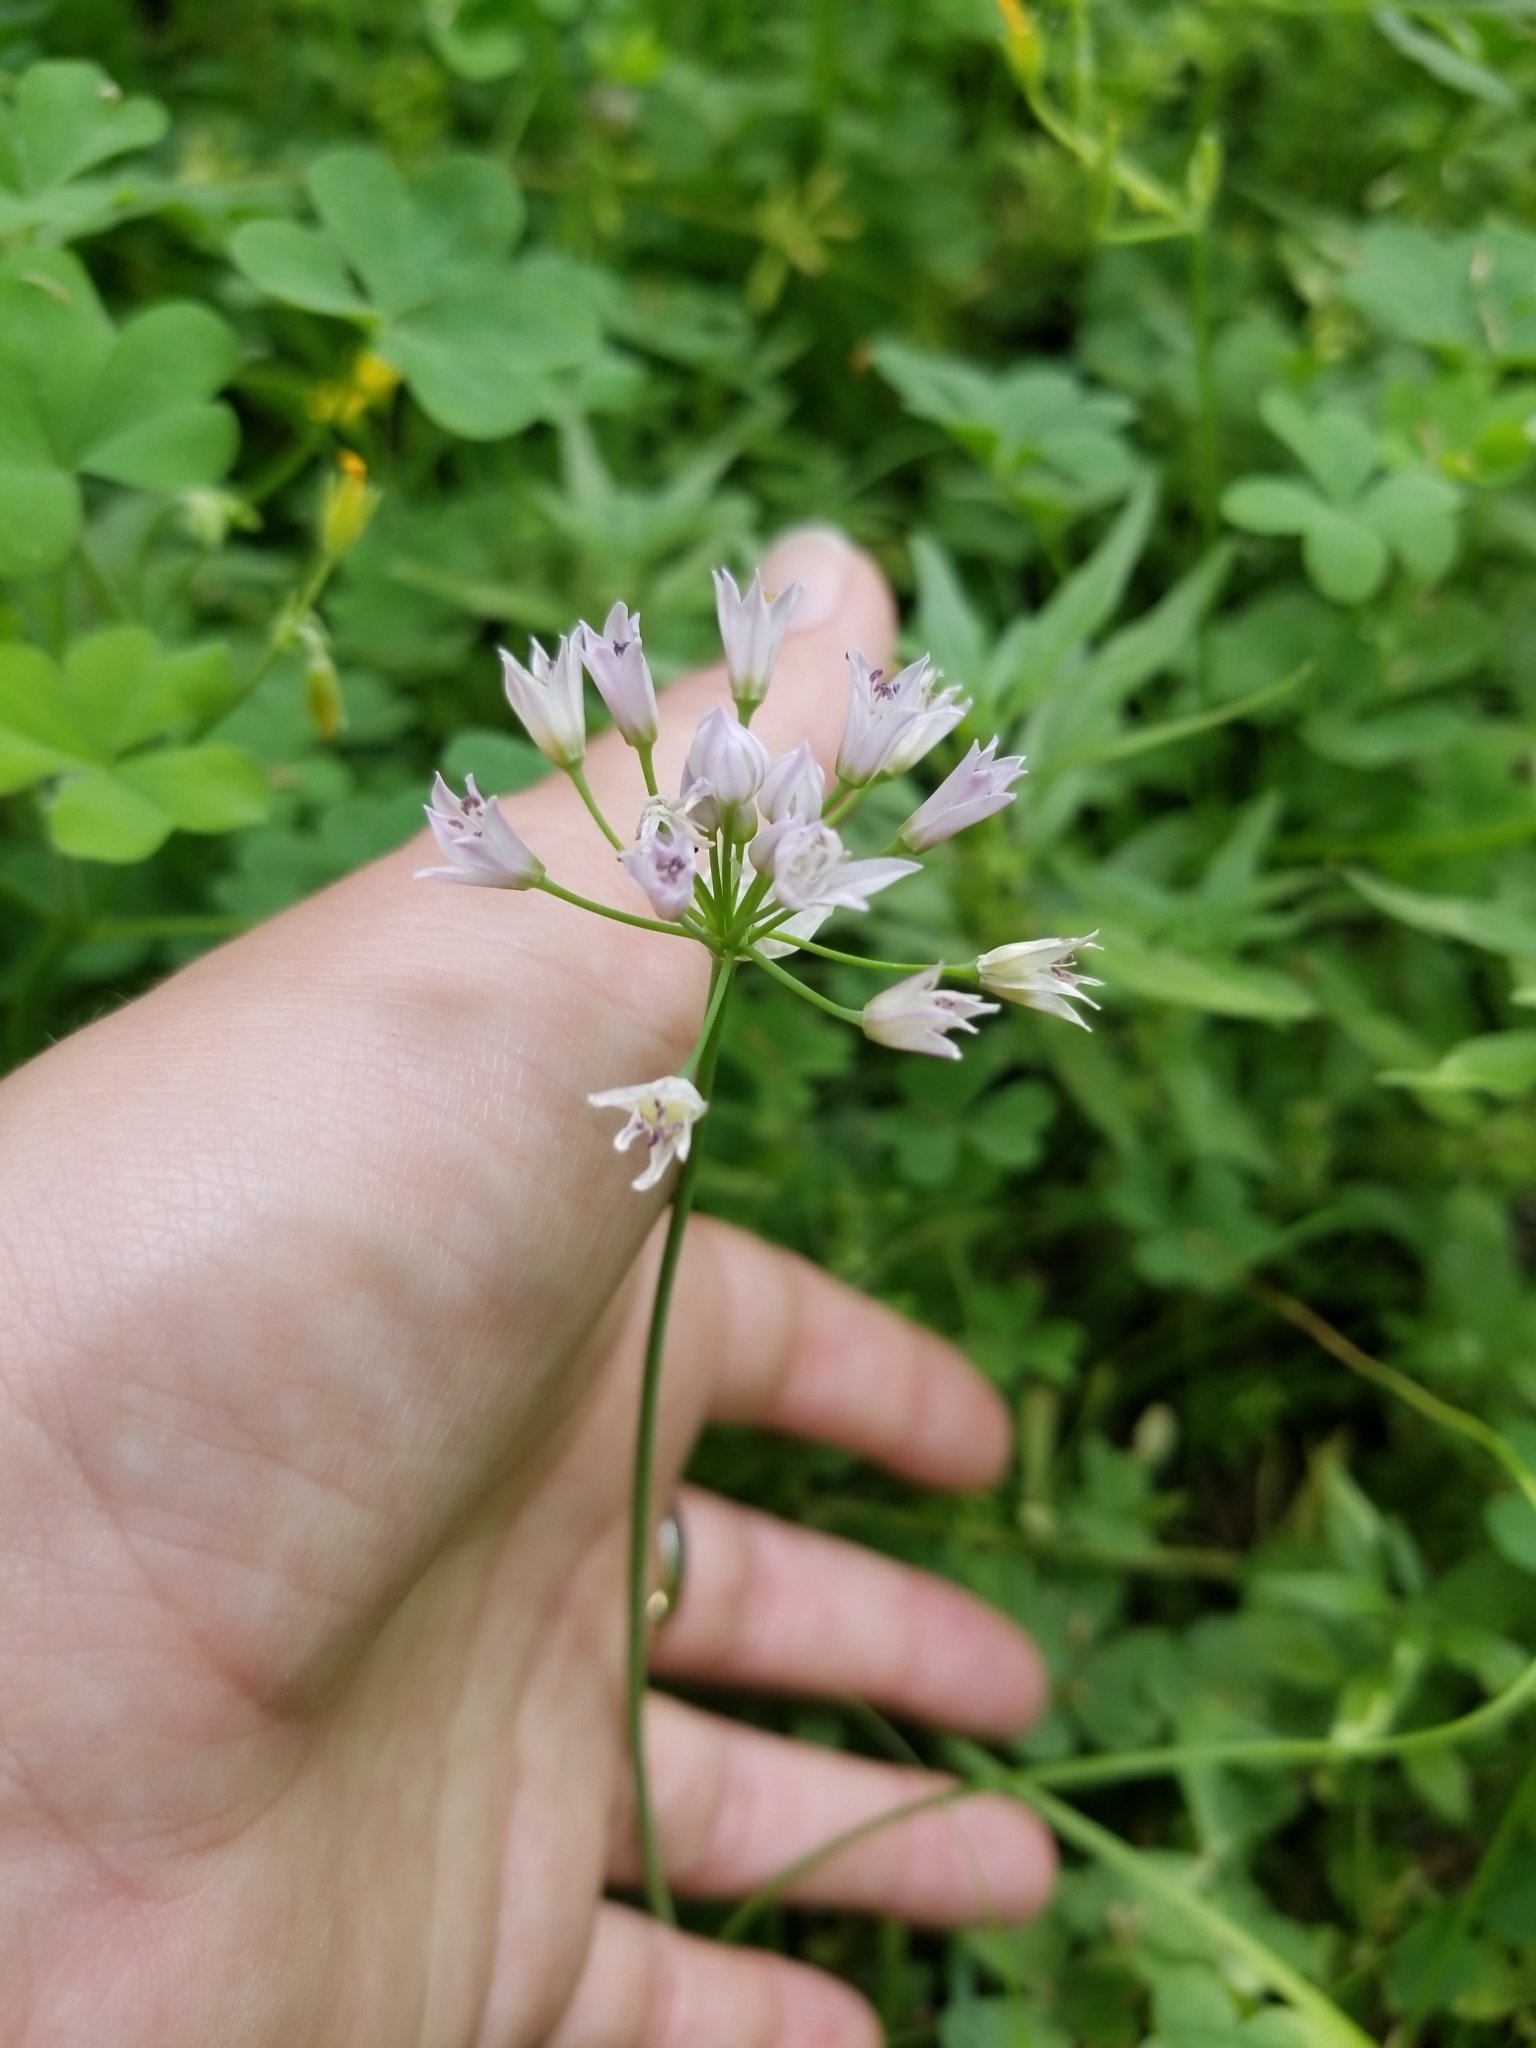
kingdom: Plantae
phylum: Tracheophyta
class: Liliopsida
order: Asparagales
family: Amaryllidaceae
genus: Allium
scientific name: Allium drummondii
